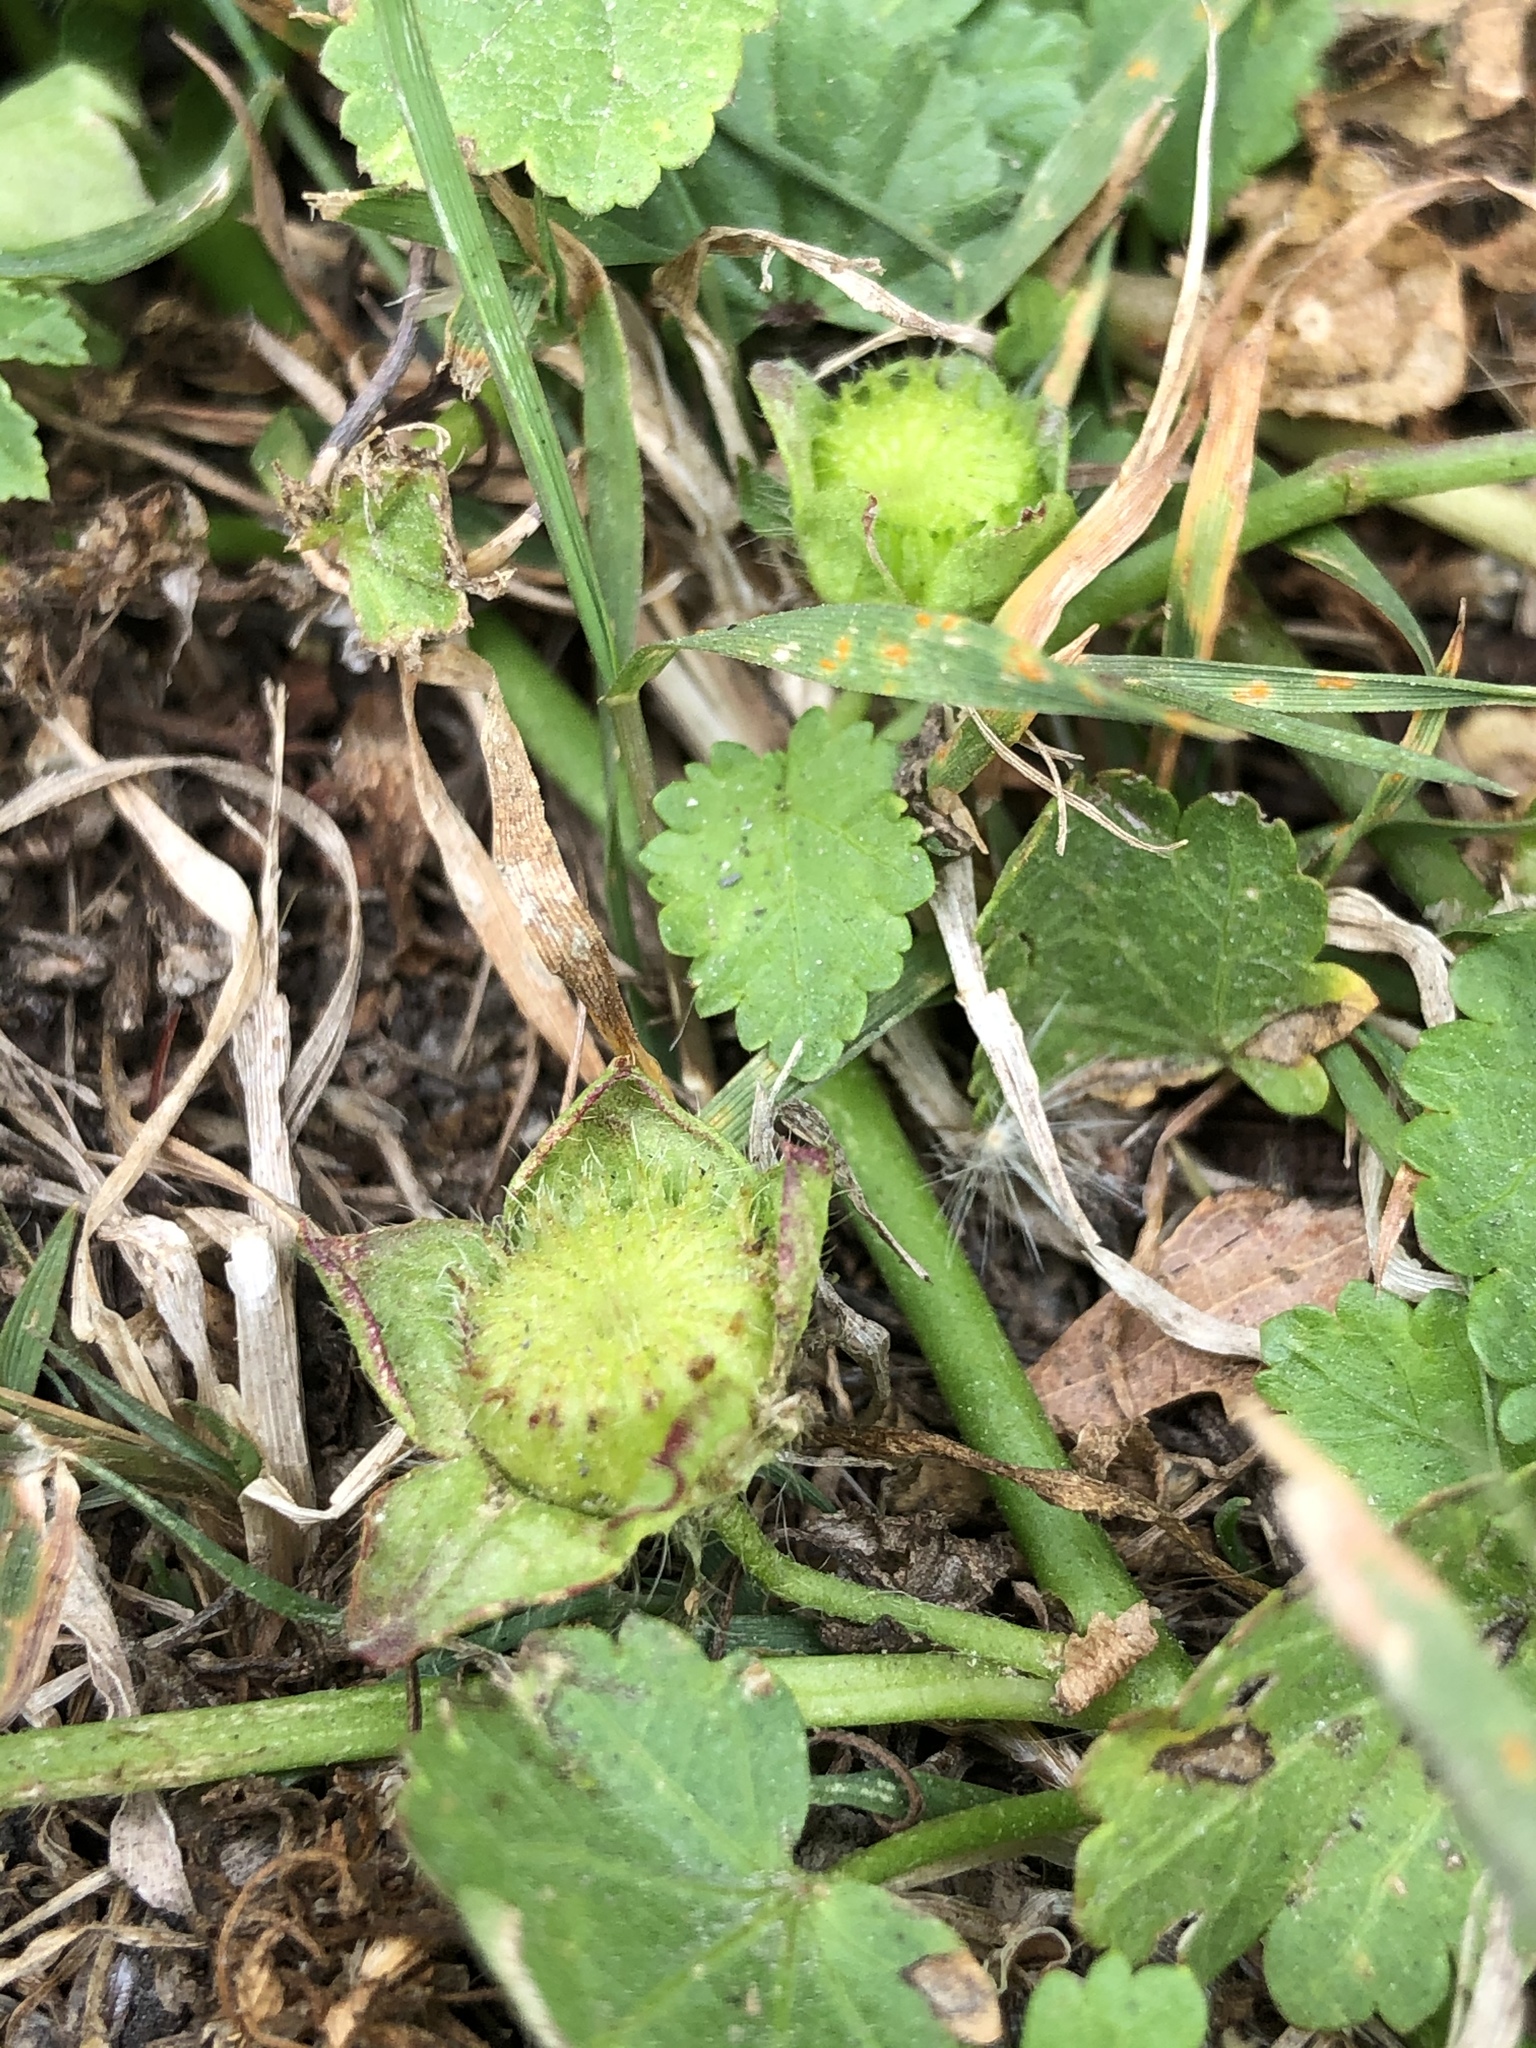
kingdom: Plantae
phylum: Tracheophyta
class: Magnoliopsida
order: Malvales
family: Malvaceae
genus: Modiola
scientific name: Modiola caroliniana
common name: Carolina bristlemallow
